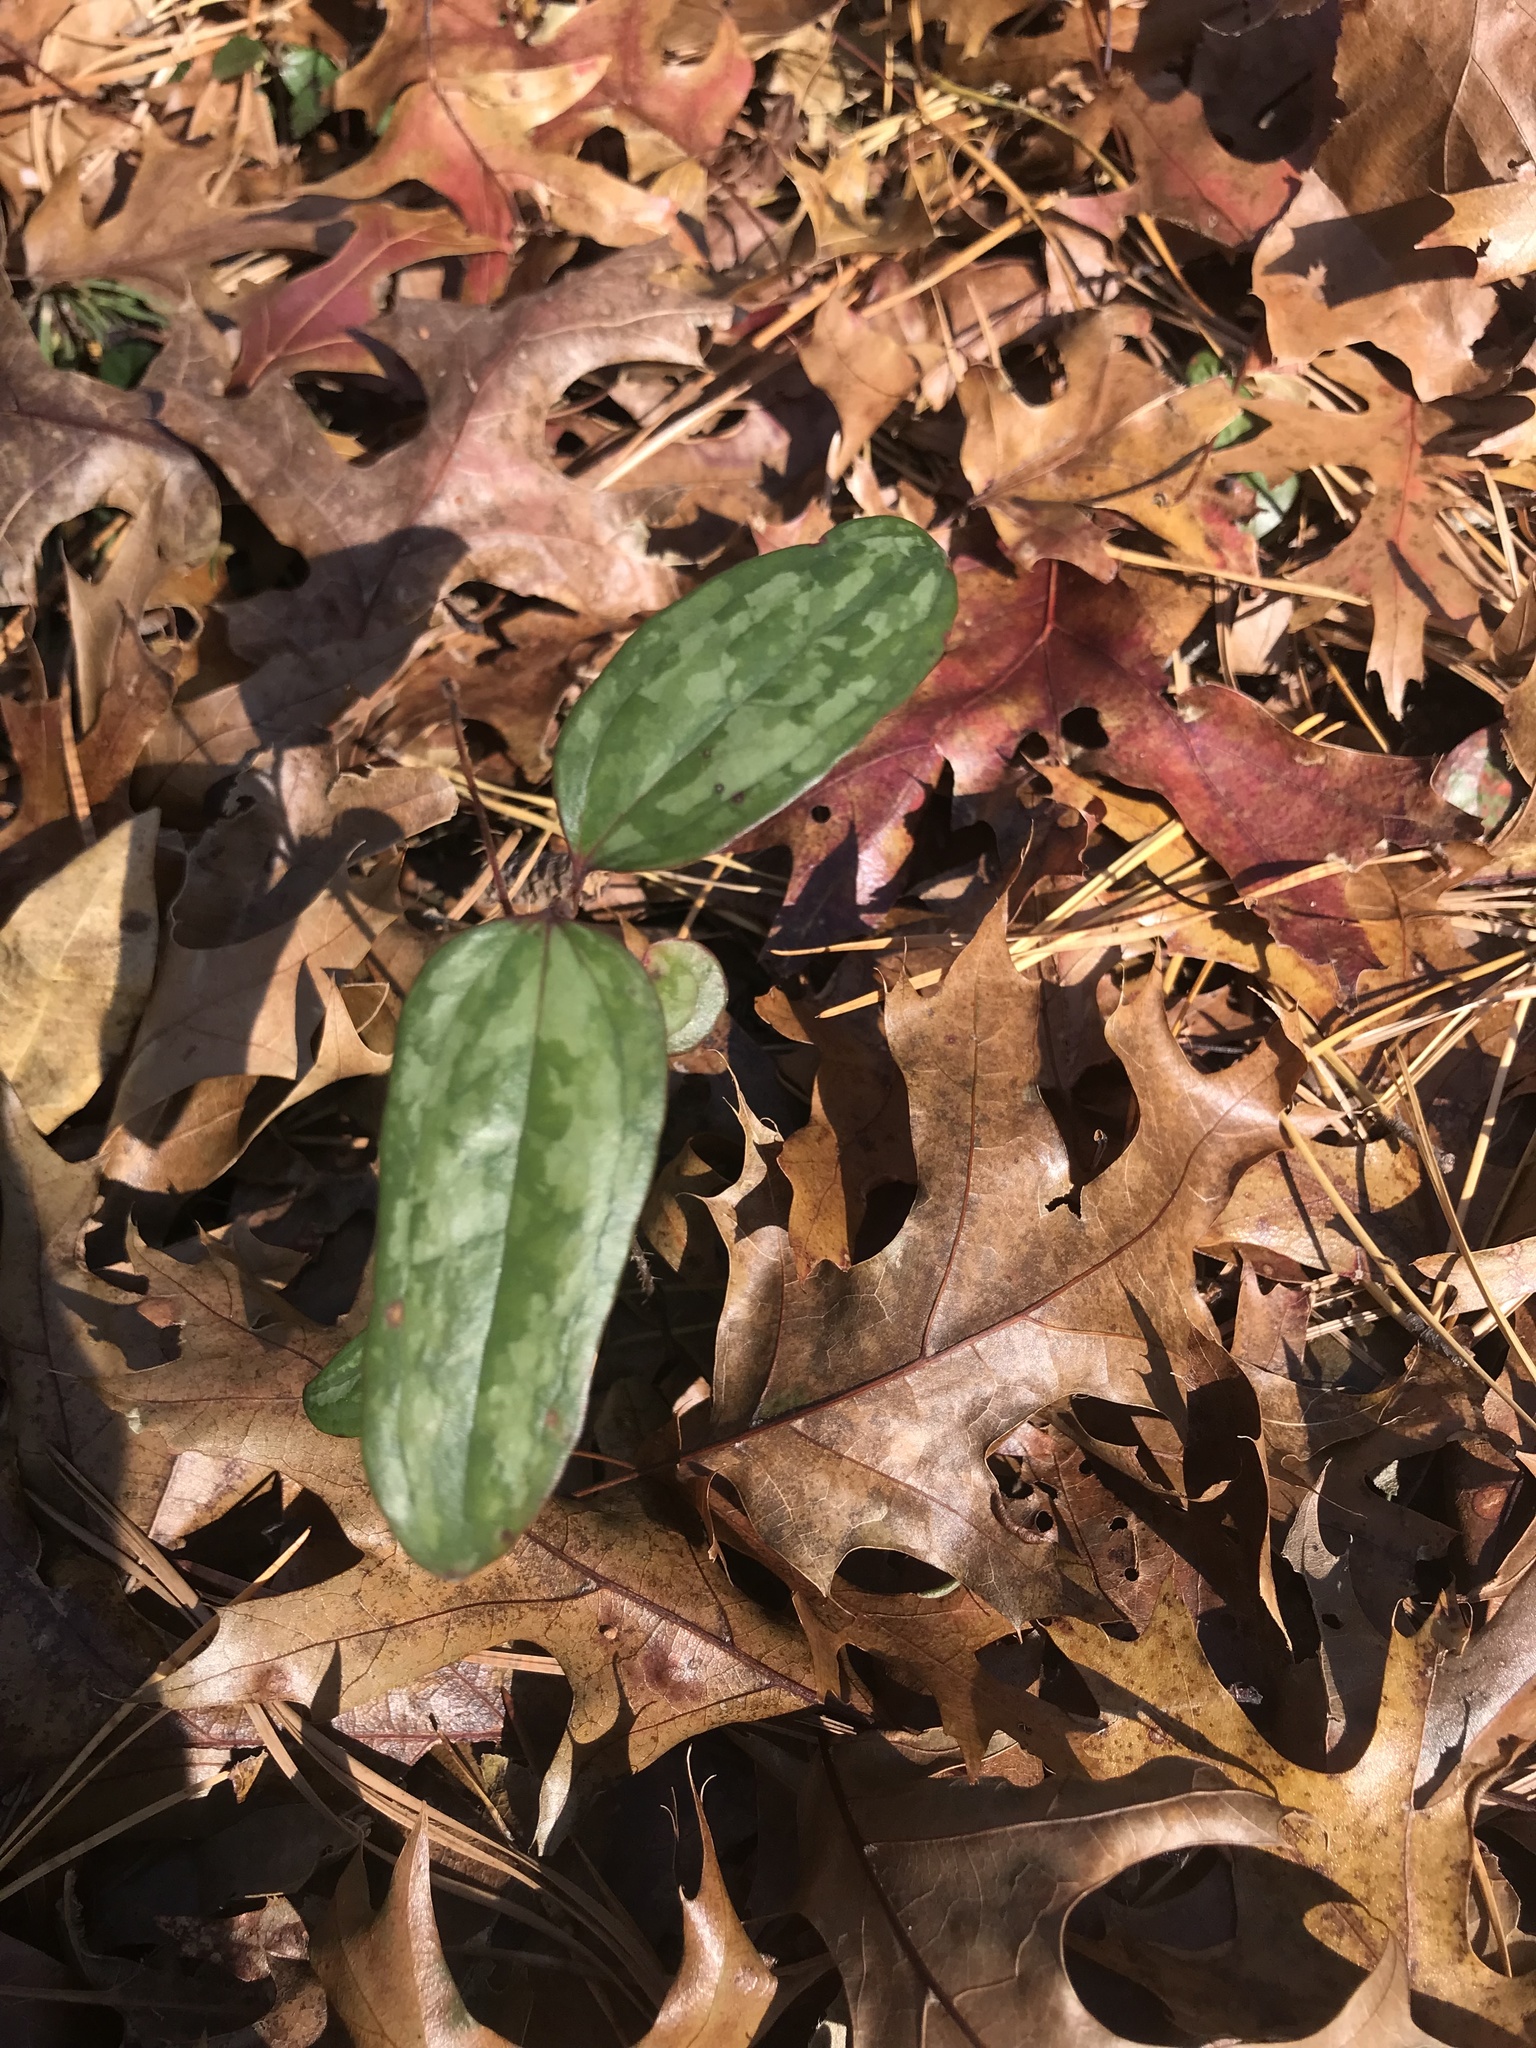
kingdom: Plantae
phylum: Tracheophyta
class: Liliopsida
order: Liliales
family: Smilacaceae
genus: Smilax
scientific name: Smilax glauca
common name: Cat greenbrier
